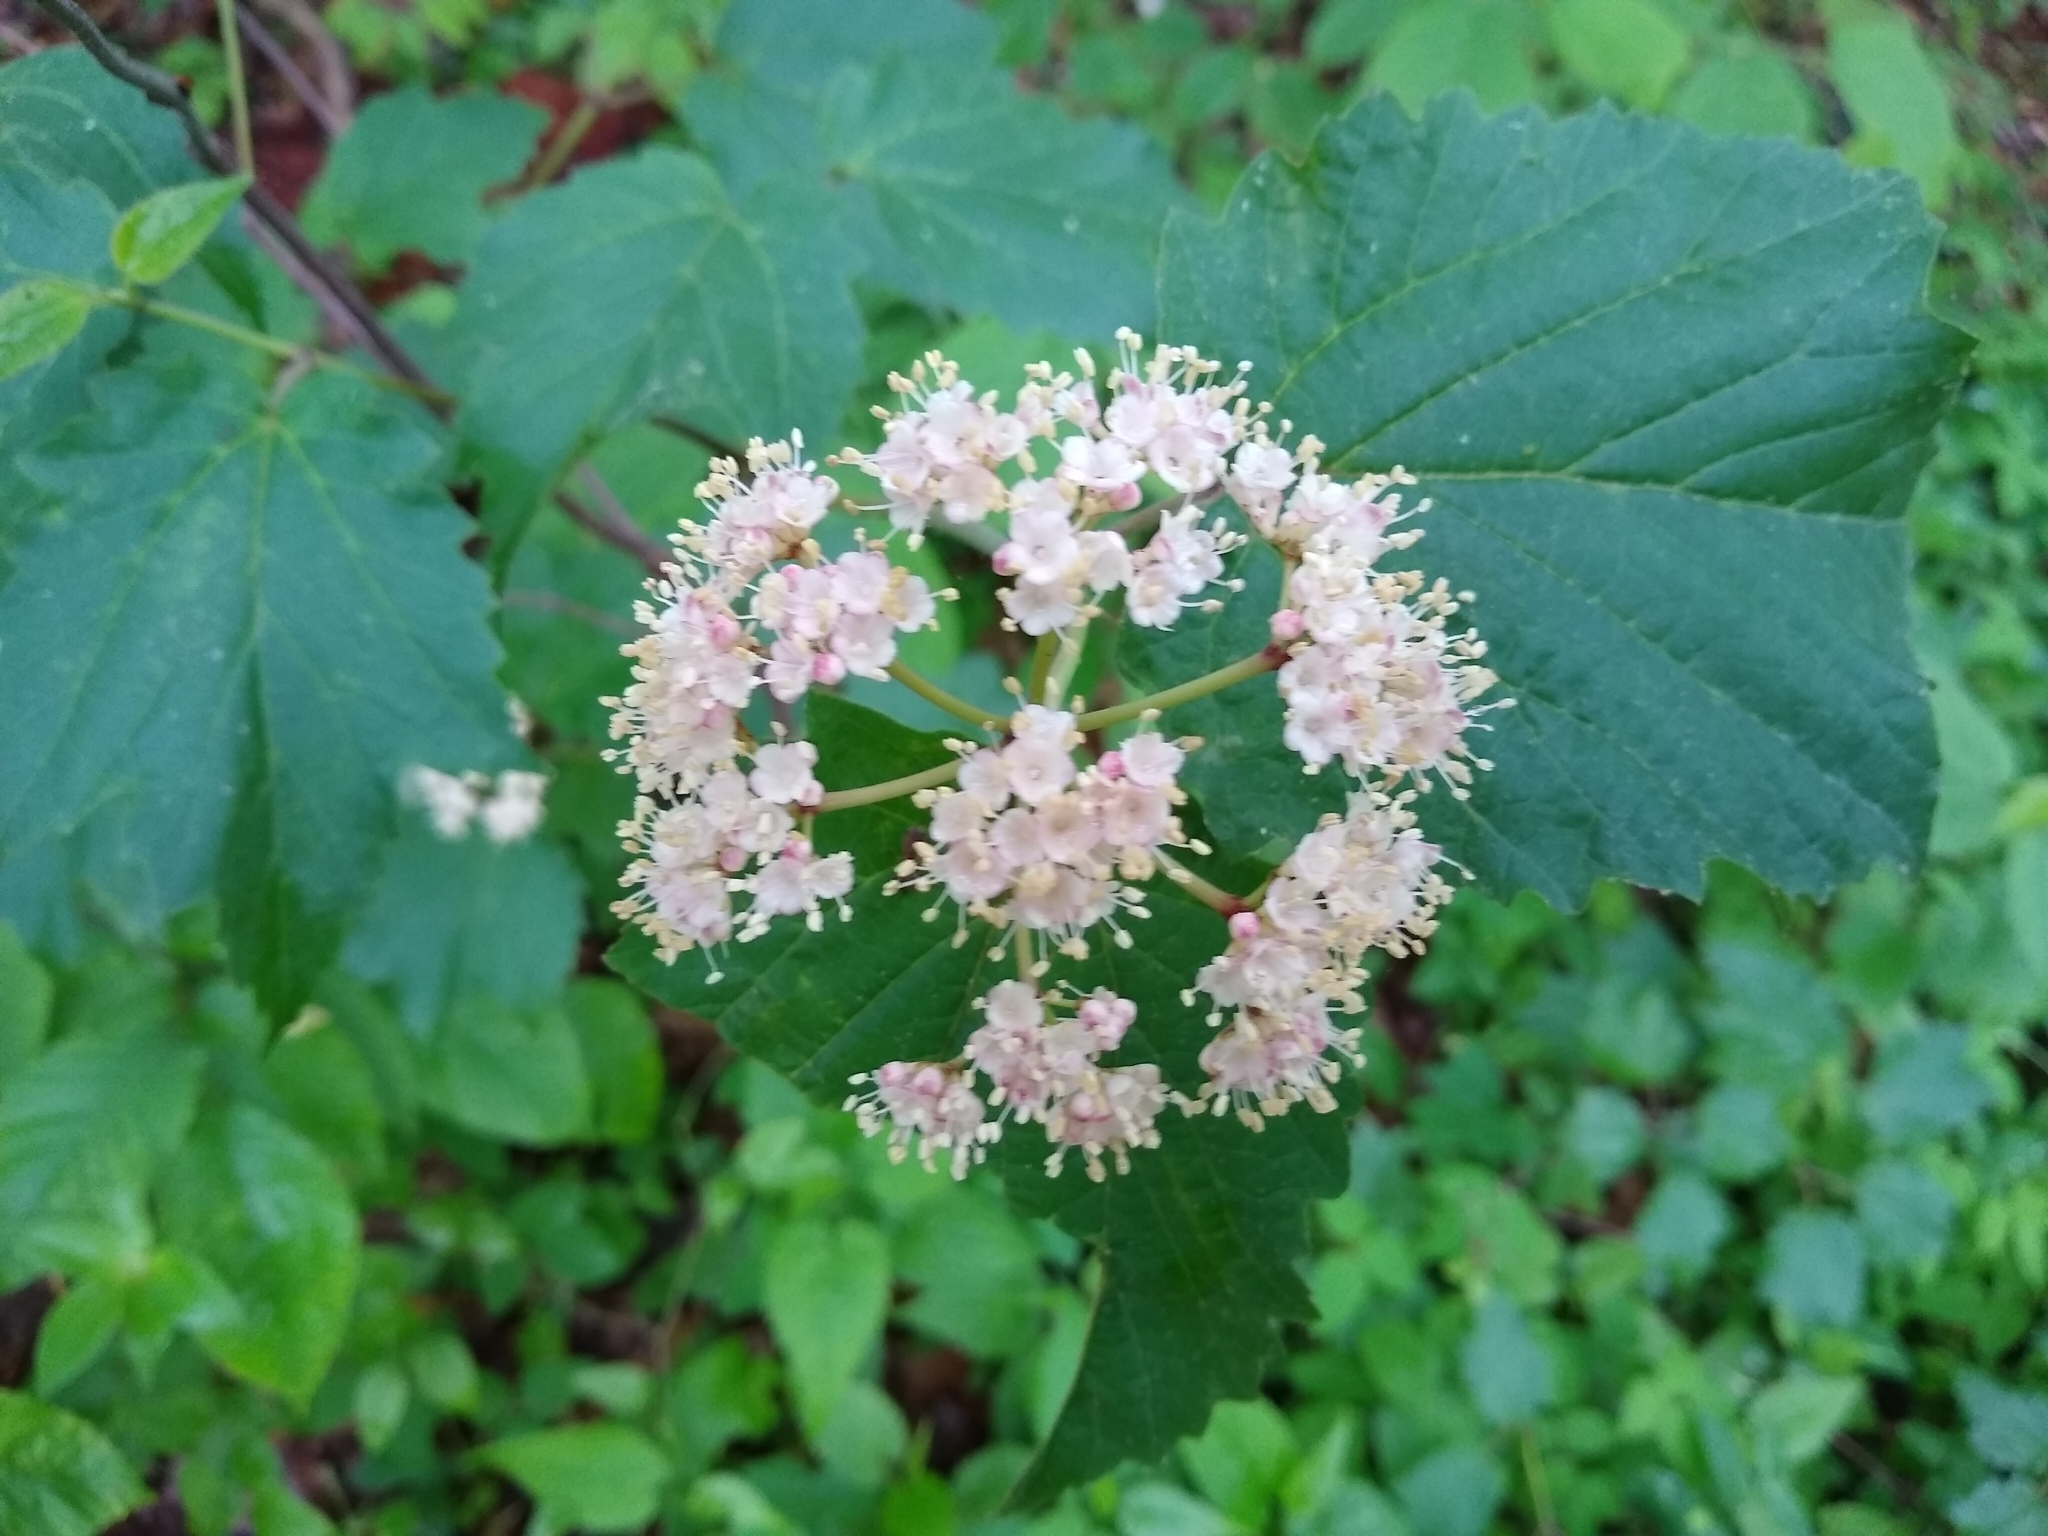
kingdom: Plantae
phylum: Tracheophyta
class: Magnoliopsida
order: Dipsacales
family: Viburnaceae
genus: Viburnum
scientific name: Viburnum acerifolium
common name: Dockmackie
